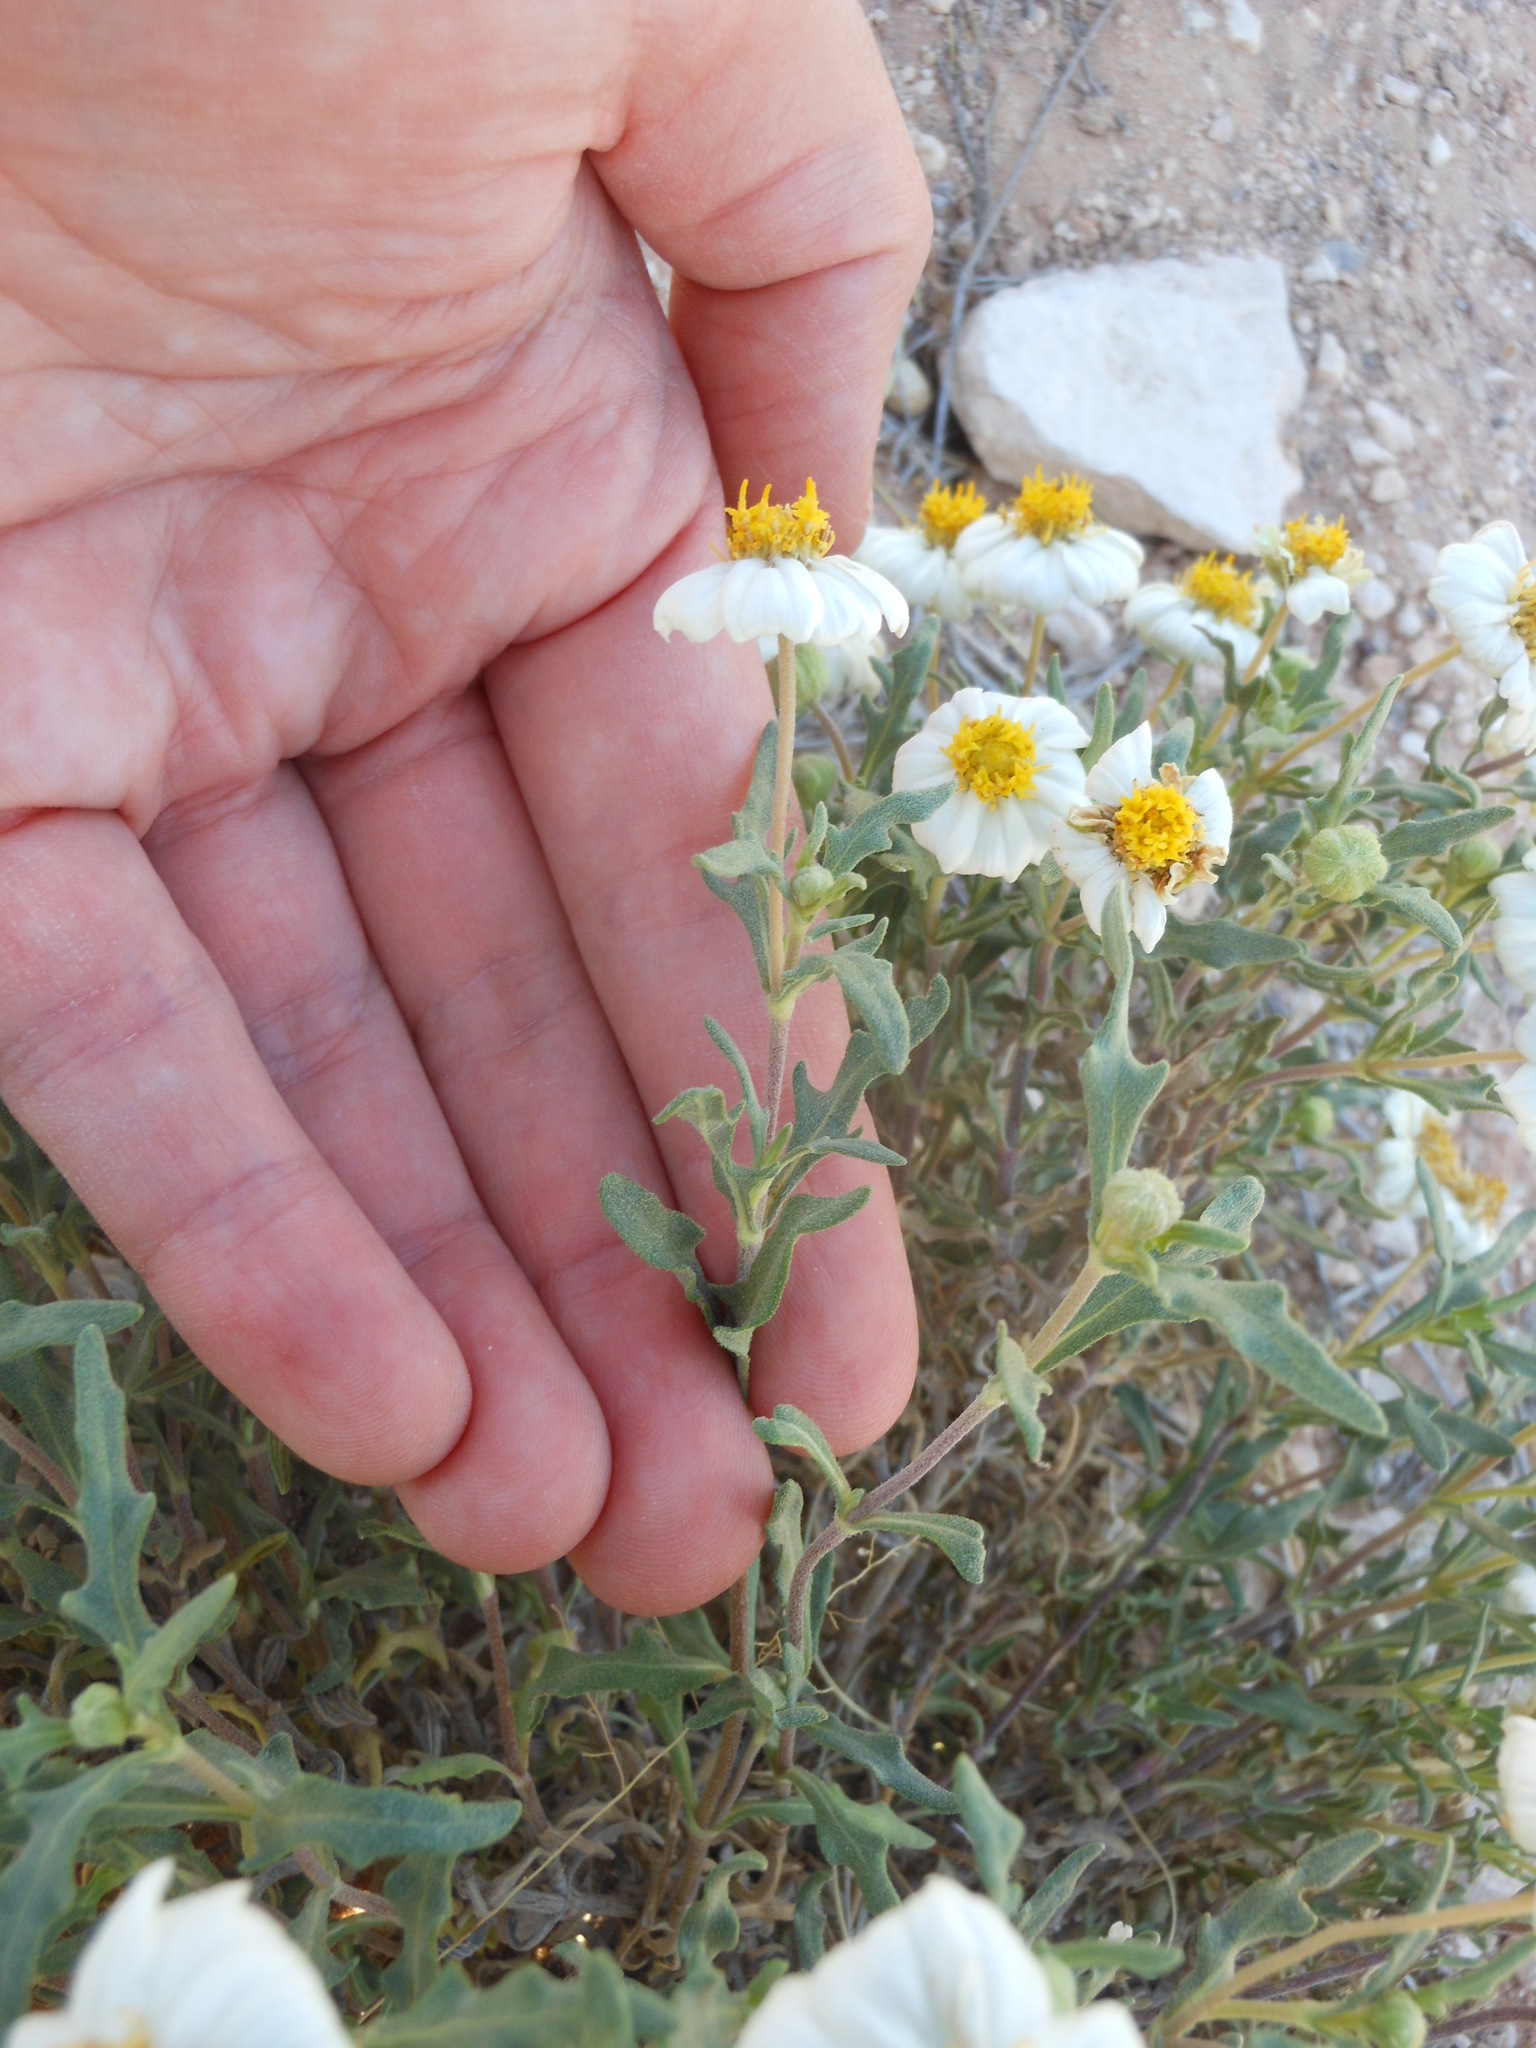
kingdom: Plantae
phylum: Tracheophyta
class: Magnoliopsida
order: Asterales
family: Asteraceae
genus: Melampodium
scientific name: Melampodium leucanthum
